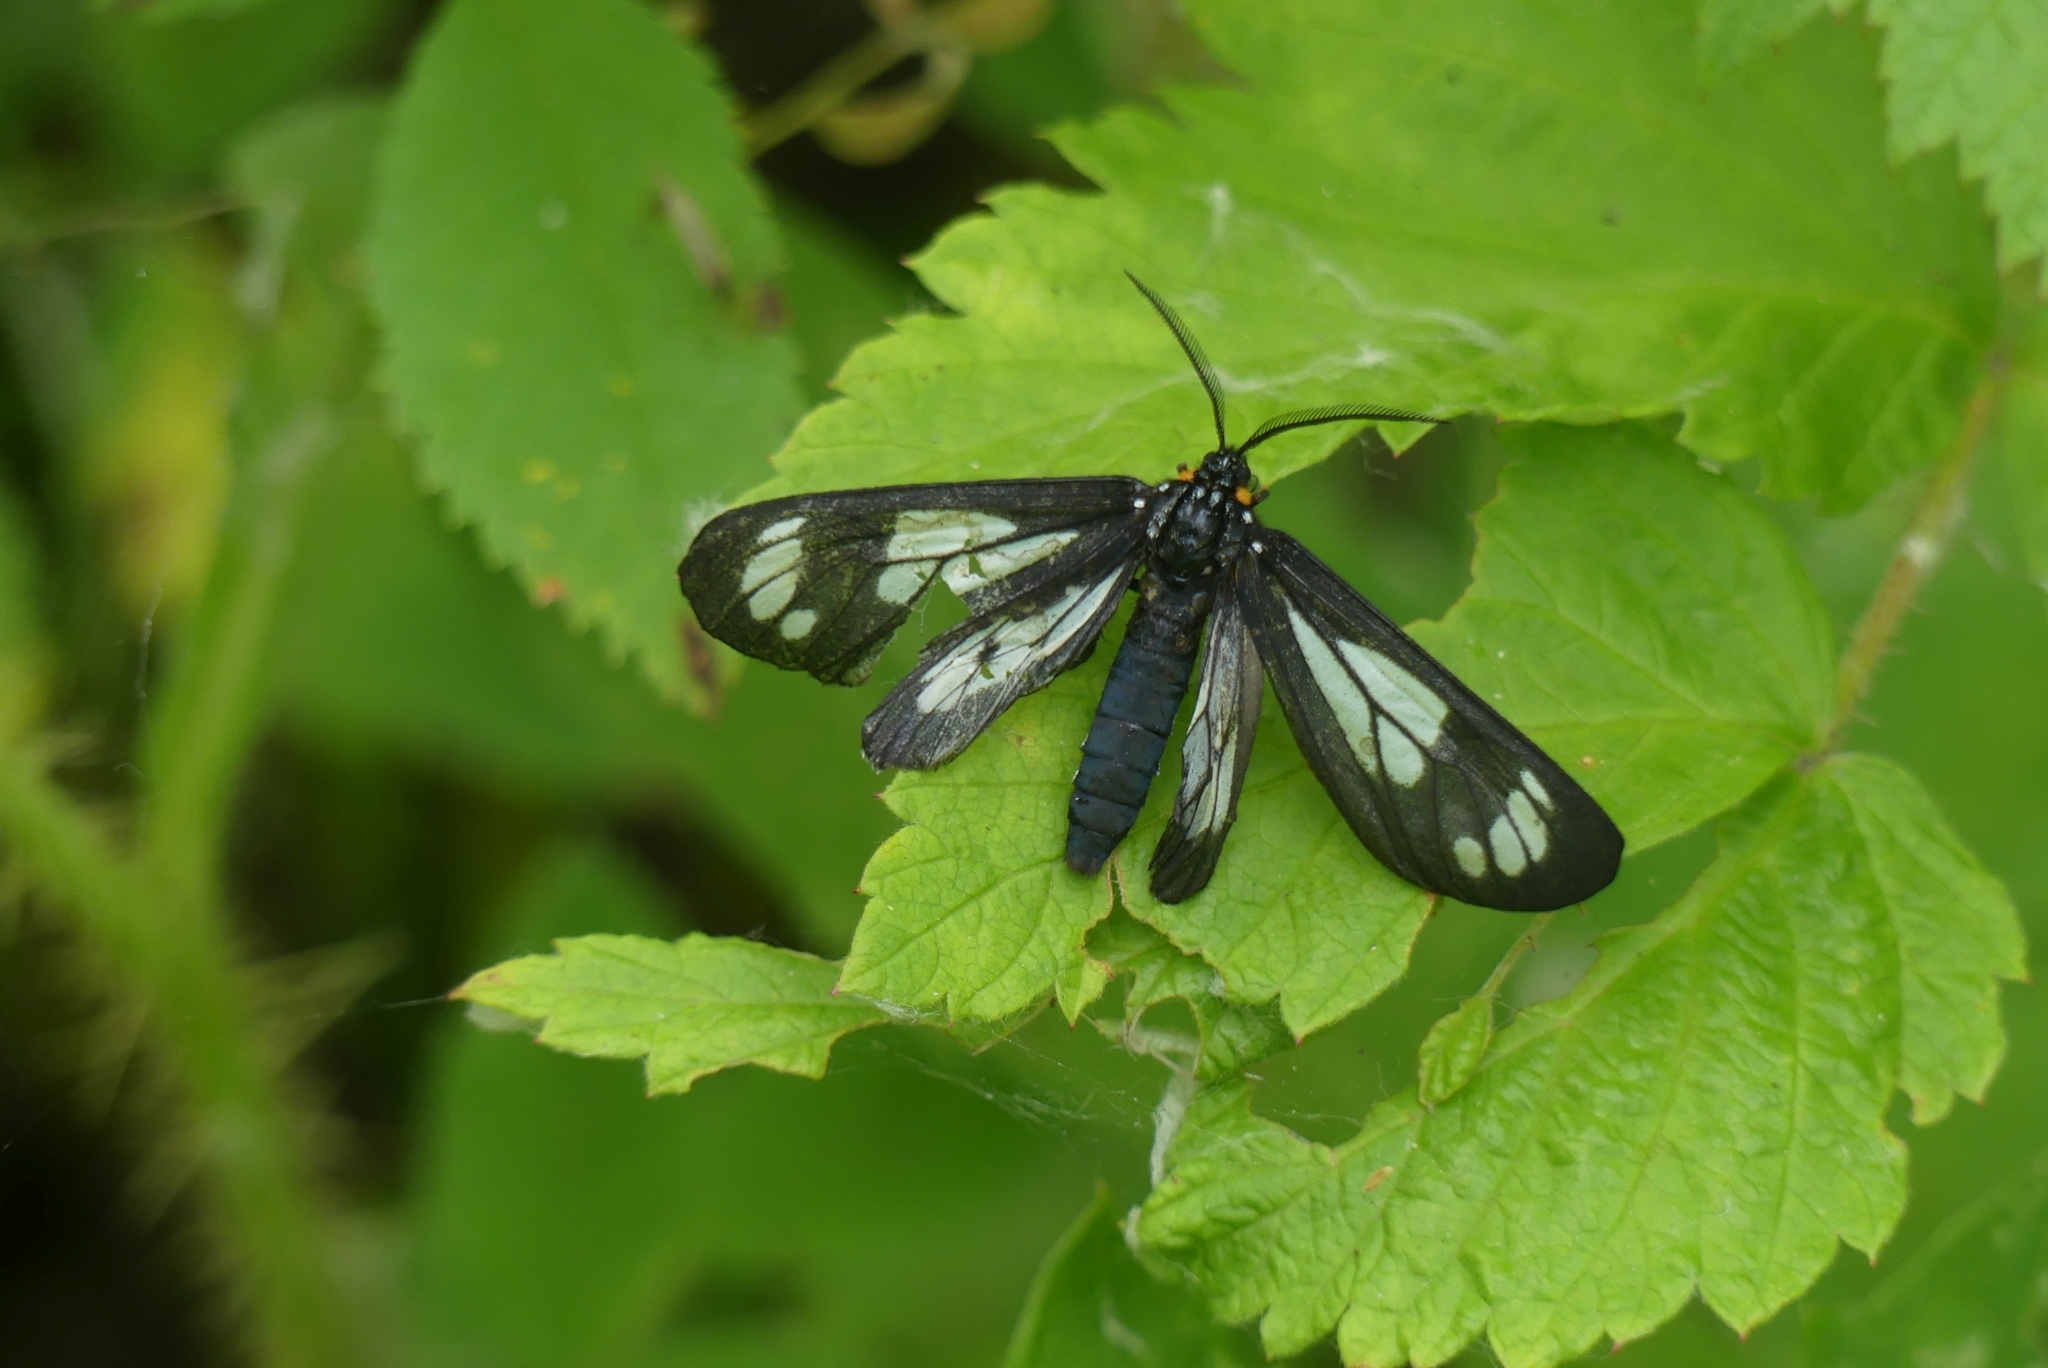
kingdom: Animalia
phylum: Arthropoda
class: Insecta
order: Lepidoptera
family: Erebidae
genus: Gnophaela
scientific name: Gnophaela vermiculata
